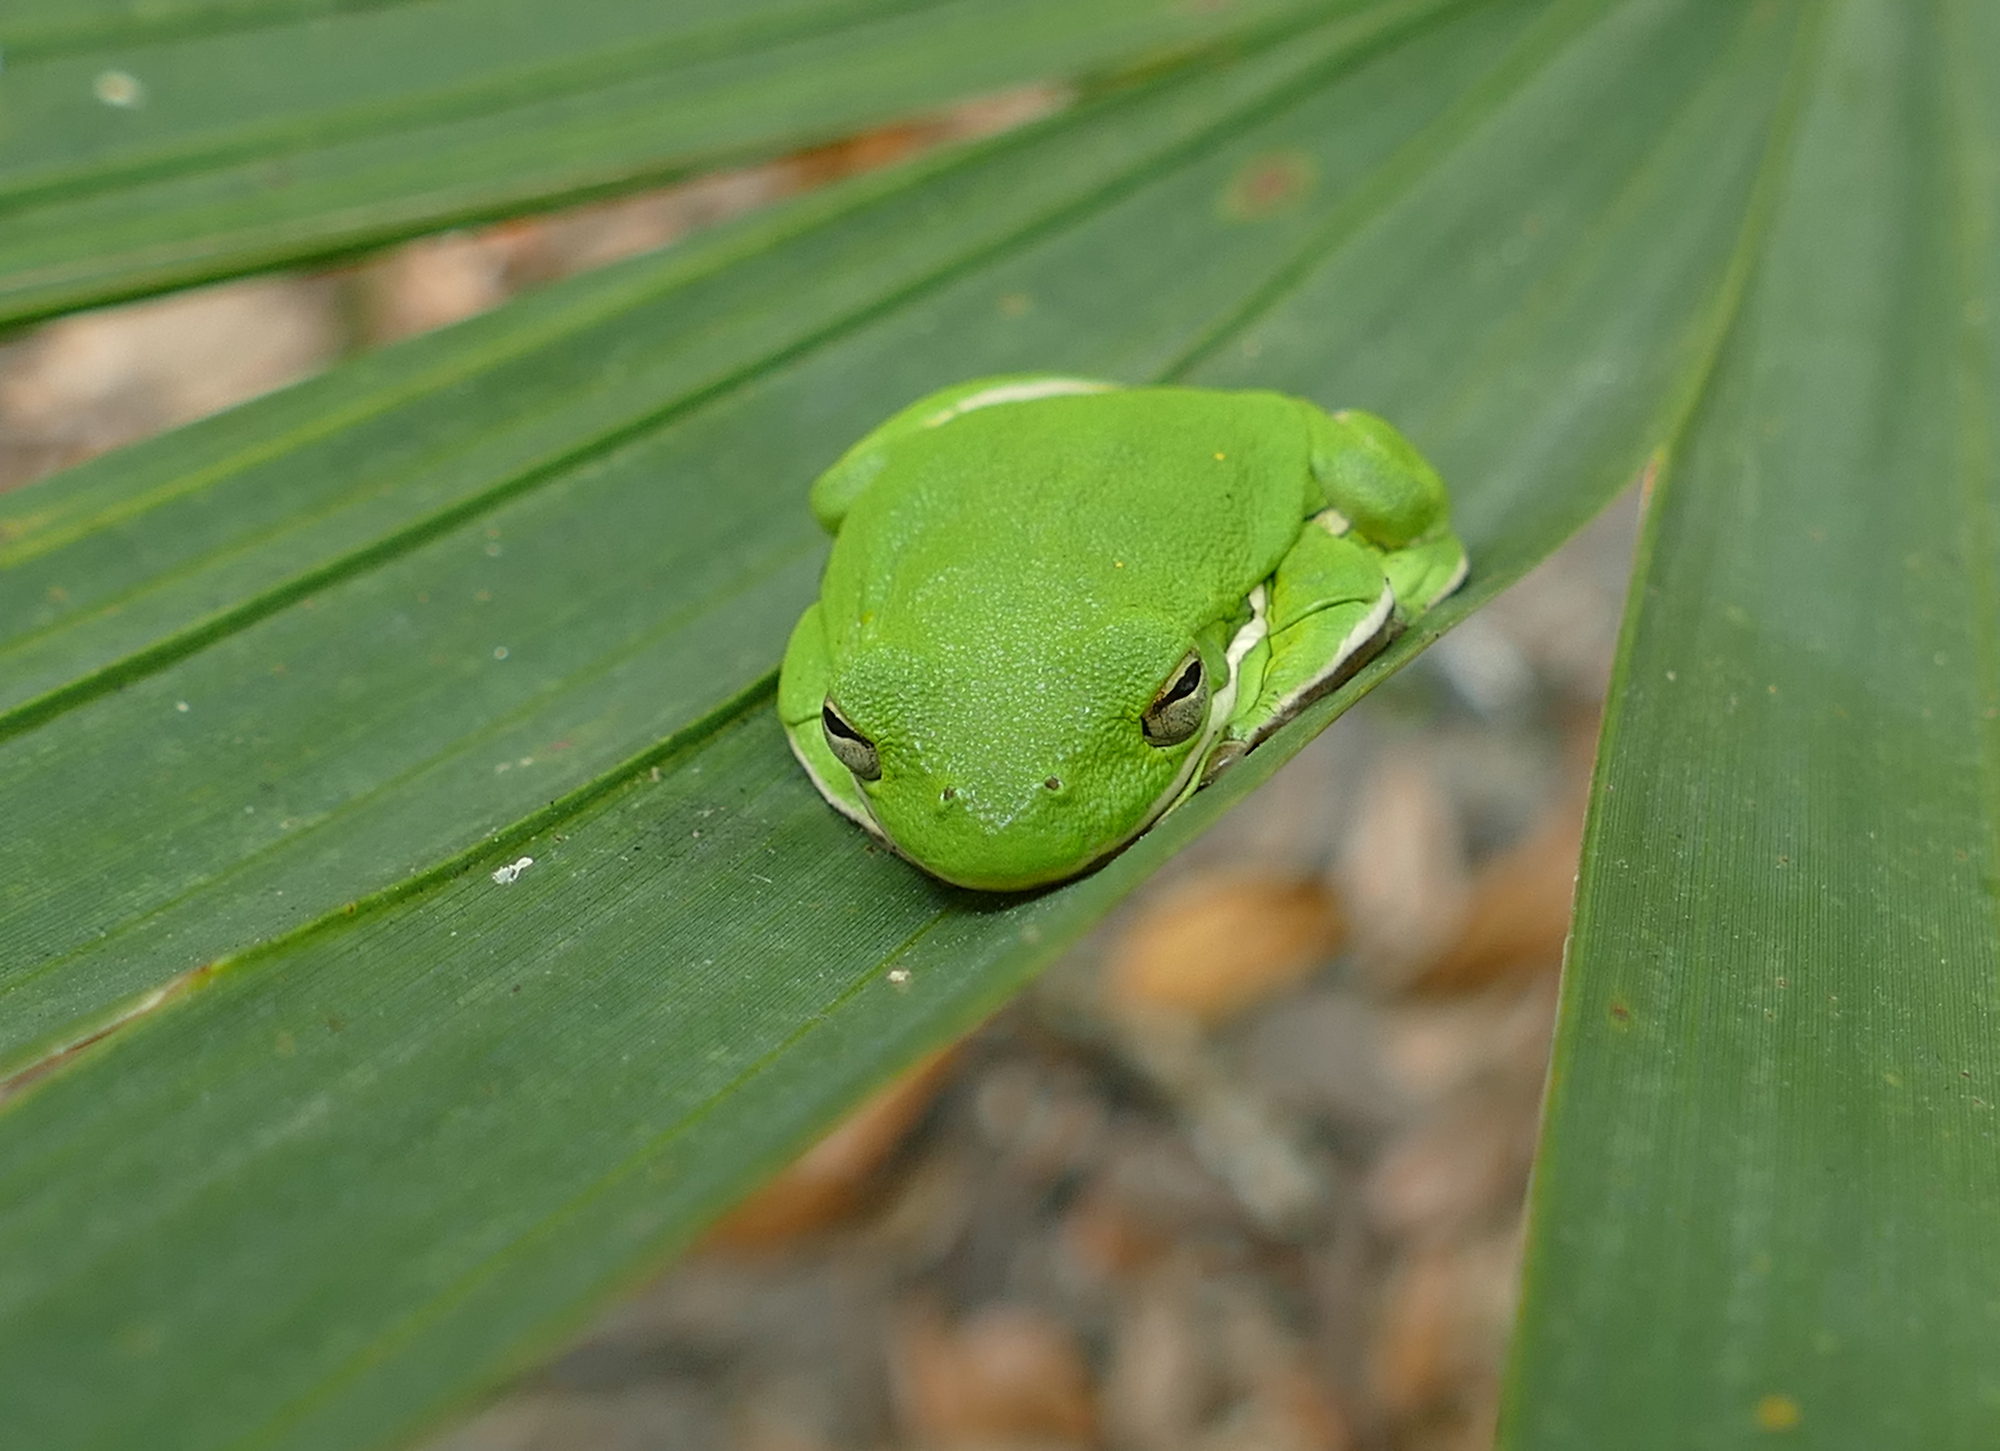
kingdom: Animalia
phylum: Chordata
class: Amphibia
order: Anura
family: Hylidae
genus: Dryophytes
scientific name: Dryophytes cinereus
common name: Green treefrog
